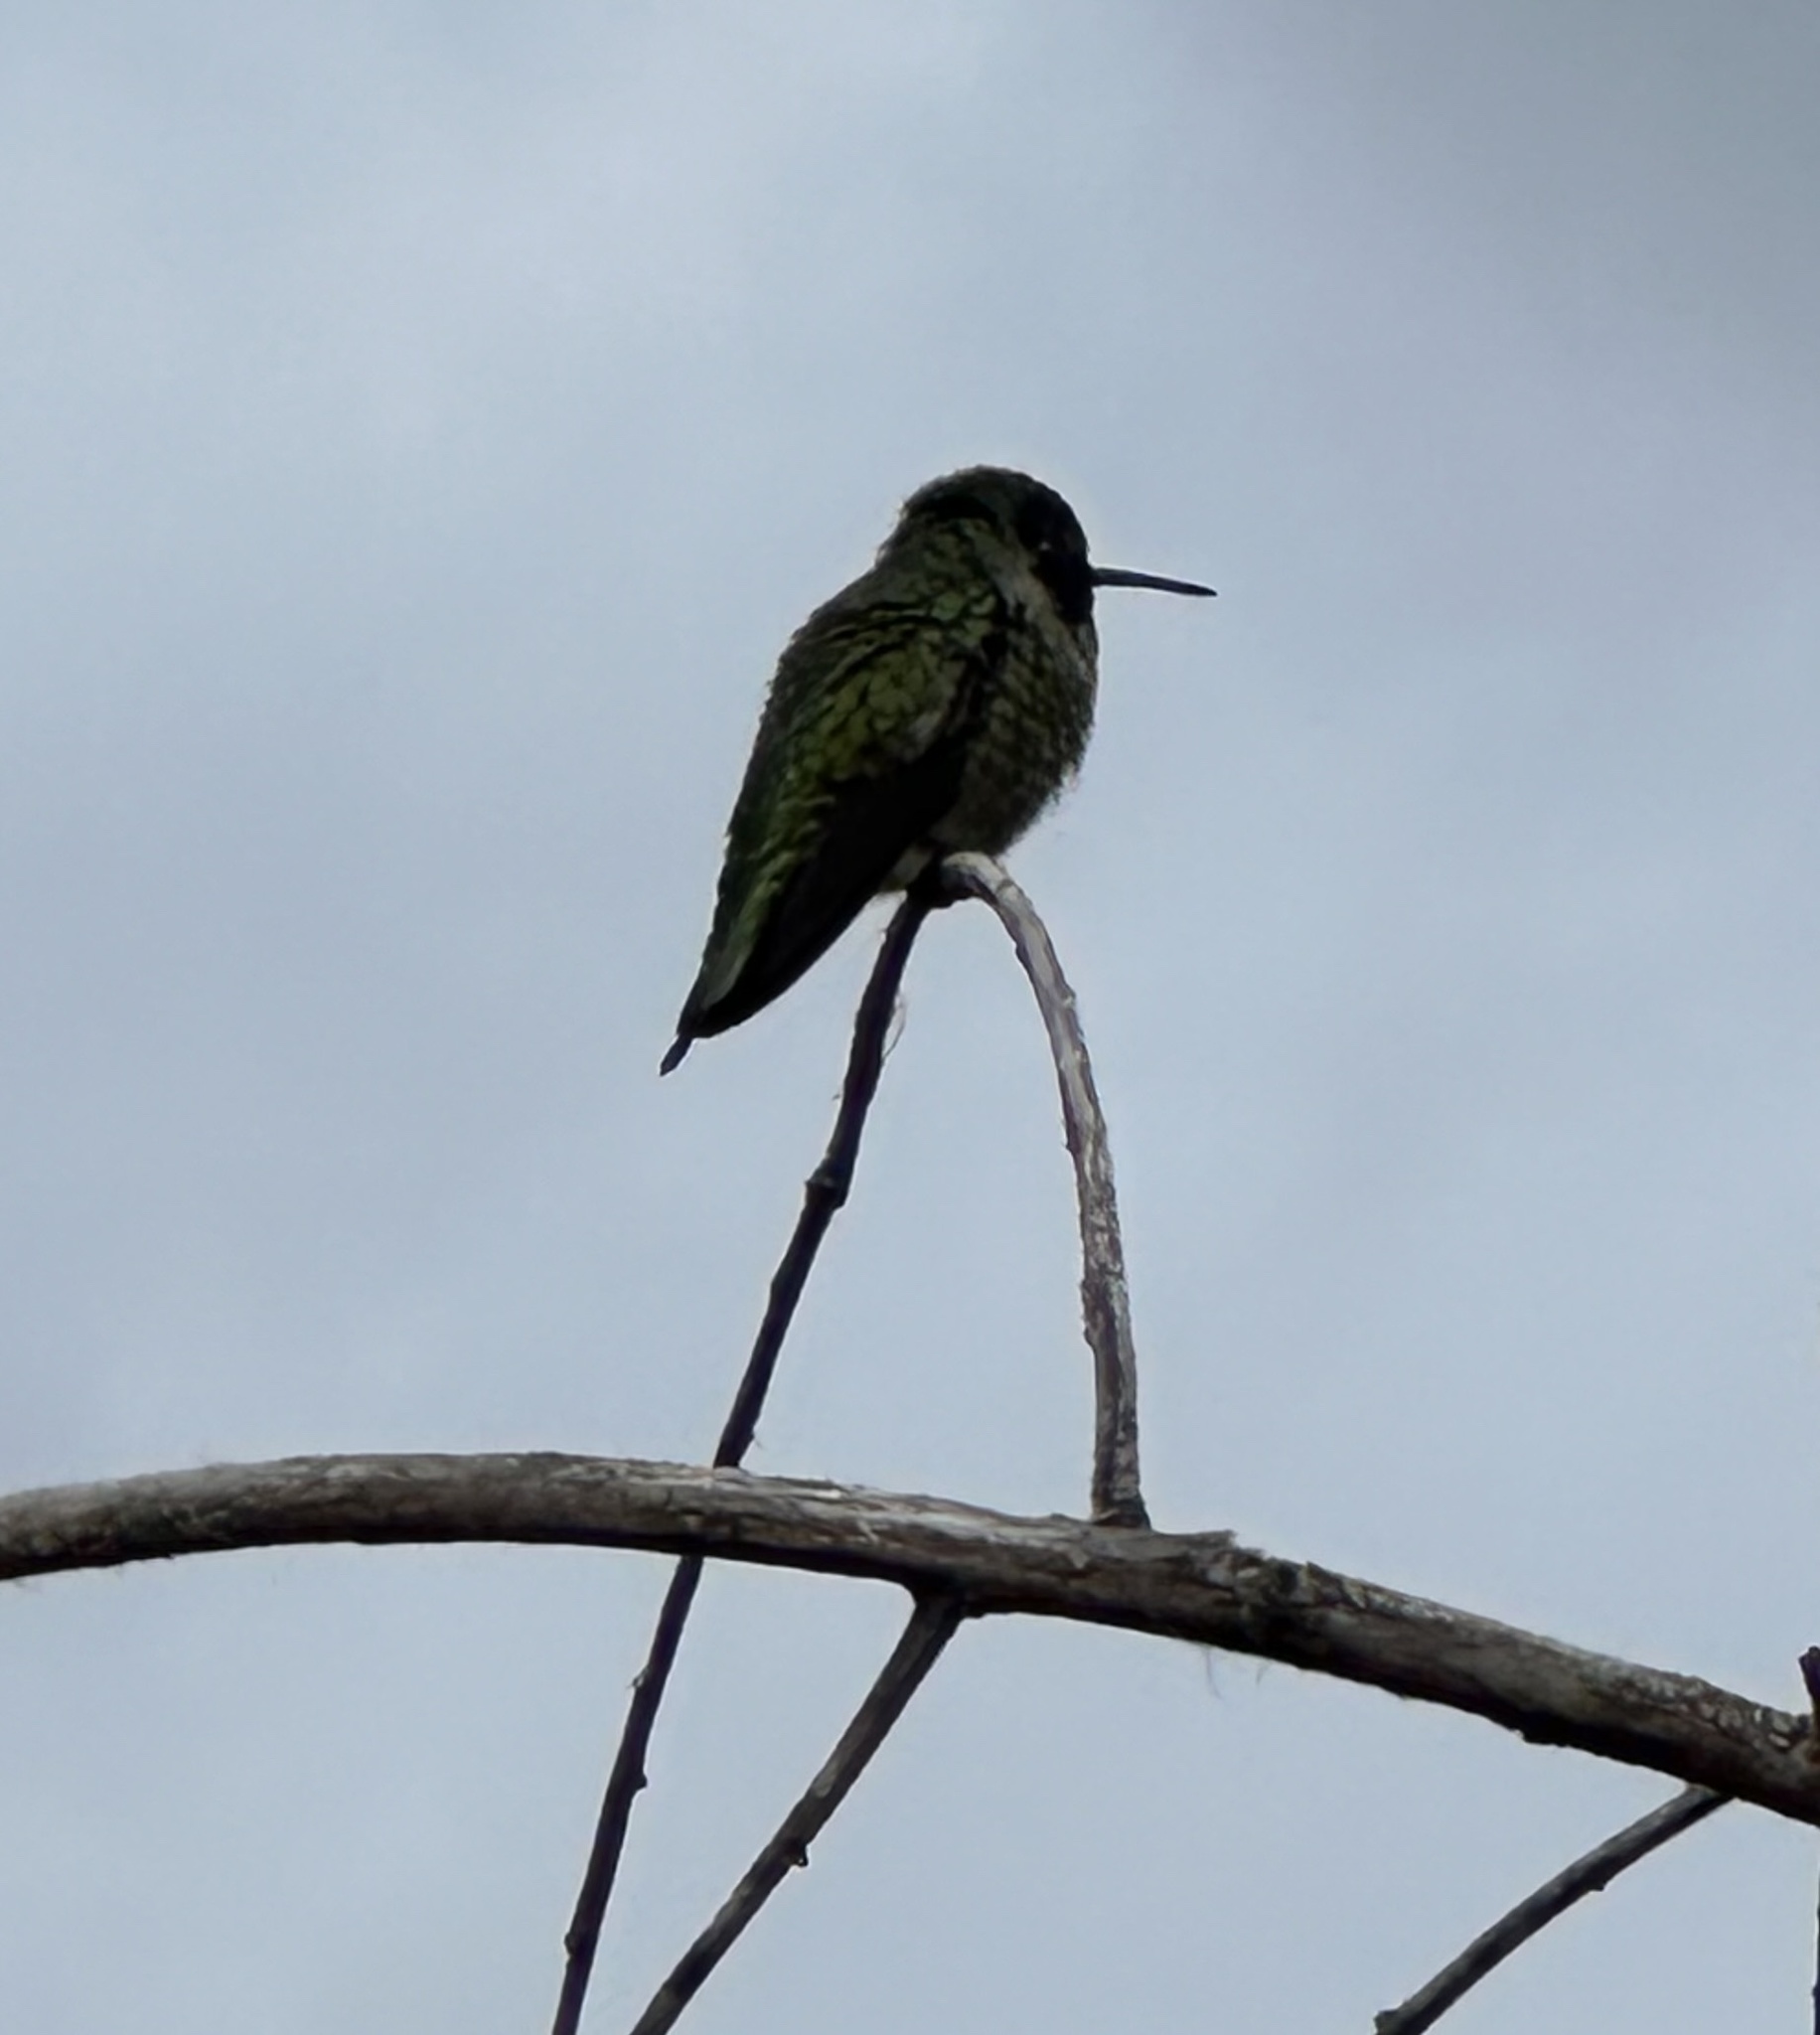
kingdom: Animalia
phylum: Chordata
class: Aves
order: Apodiformes
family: Trochilidae
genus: Calypte
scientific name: Calypte anna
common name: Anna's hummingbird
